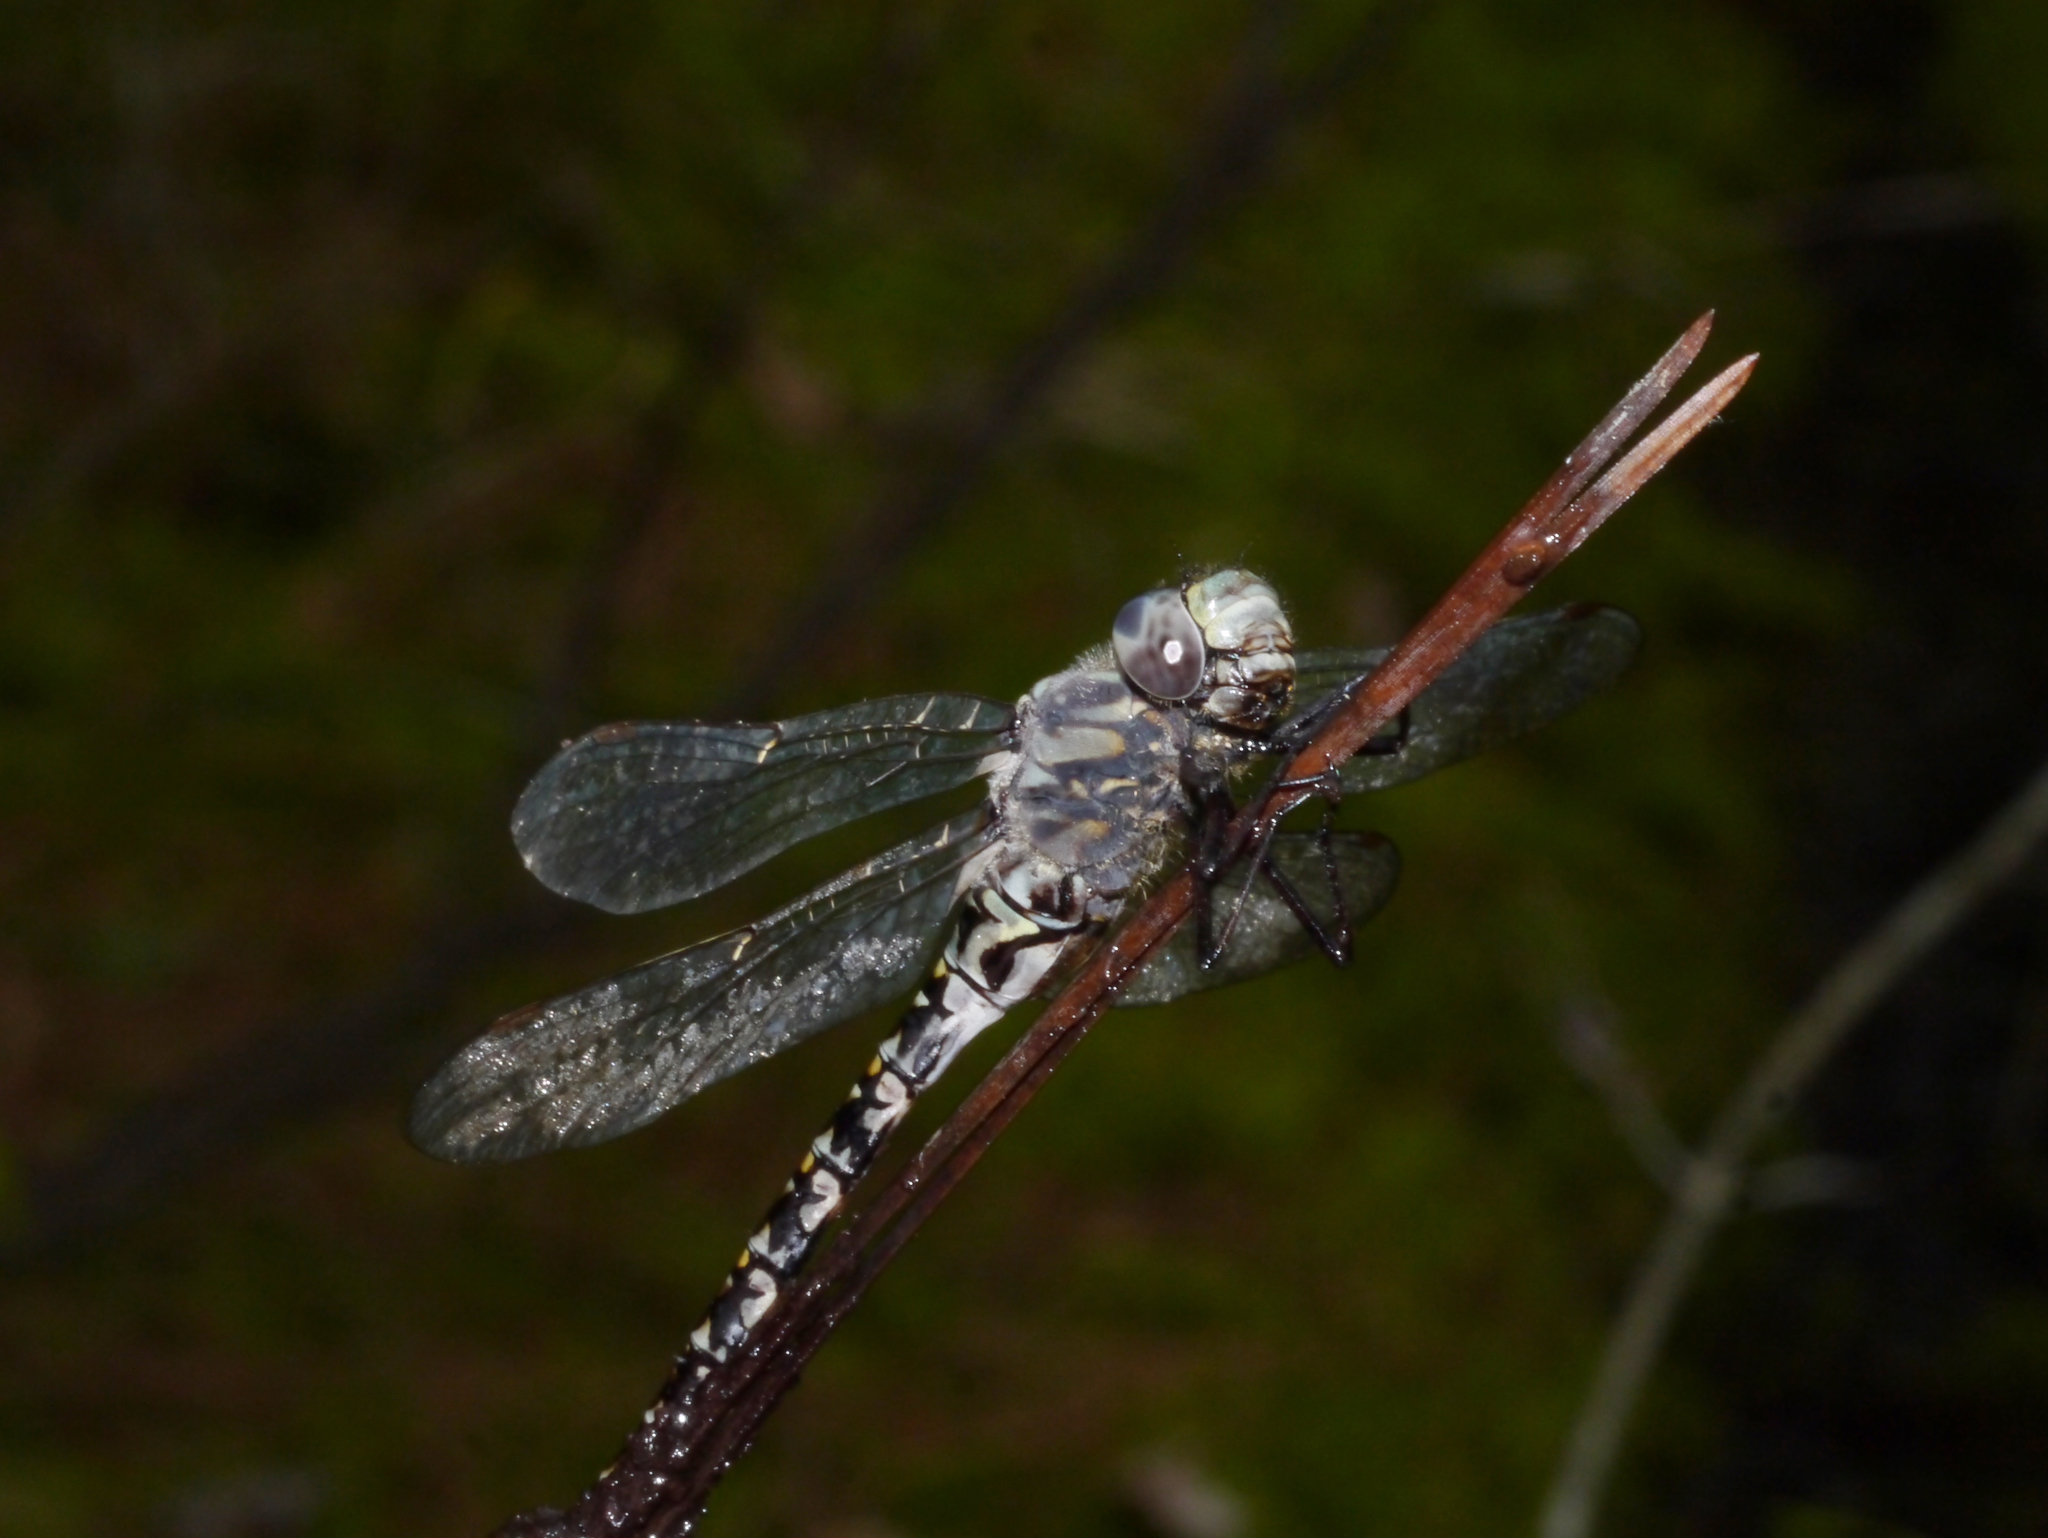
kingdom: Animalia
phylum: Arthropoda
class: Insecta
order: Odonata
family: Aeshnidae
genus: Gomphaeschna
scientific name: Gomphaeschna furcillata
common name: Harlequin darner
